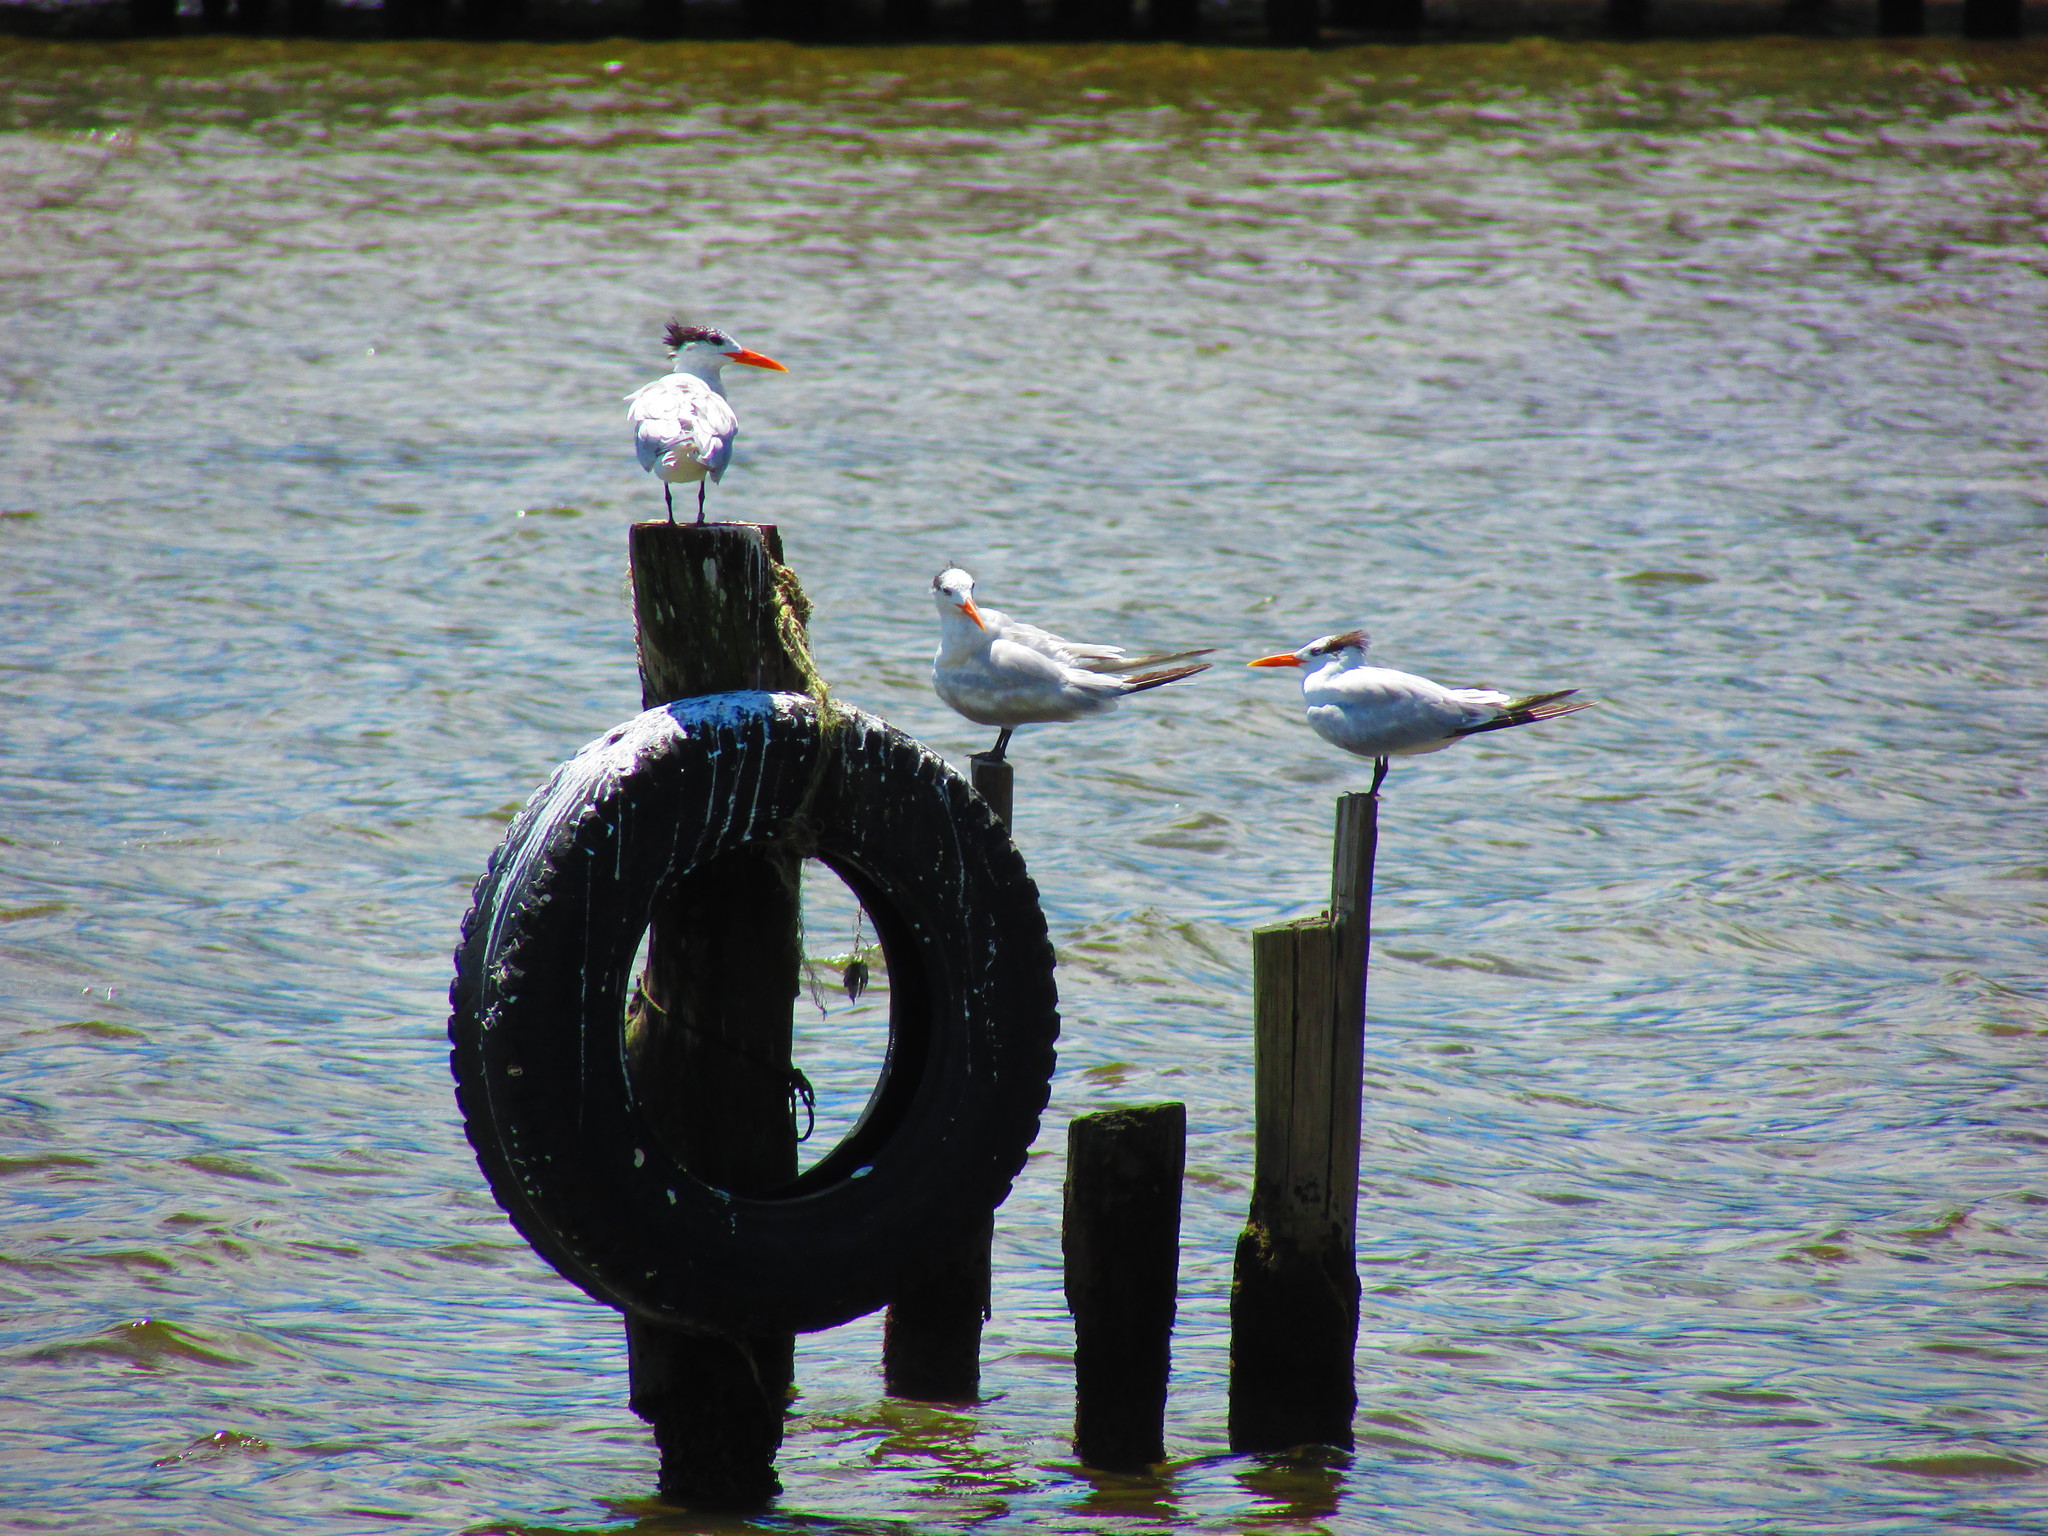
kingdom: Animalia
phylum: Chordata
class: Aves
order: Charadriiformes
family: Laridae
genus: Thalasseus
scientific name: Thalasseus maximus
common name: Royal tern
